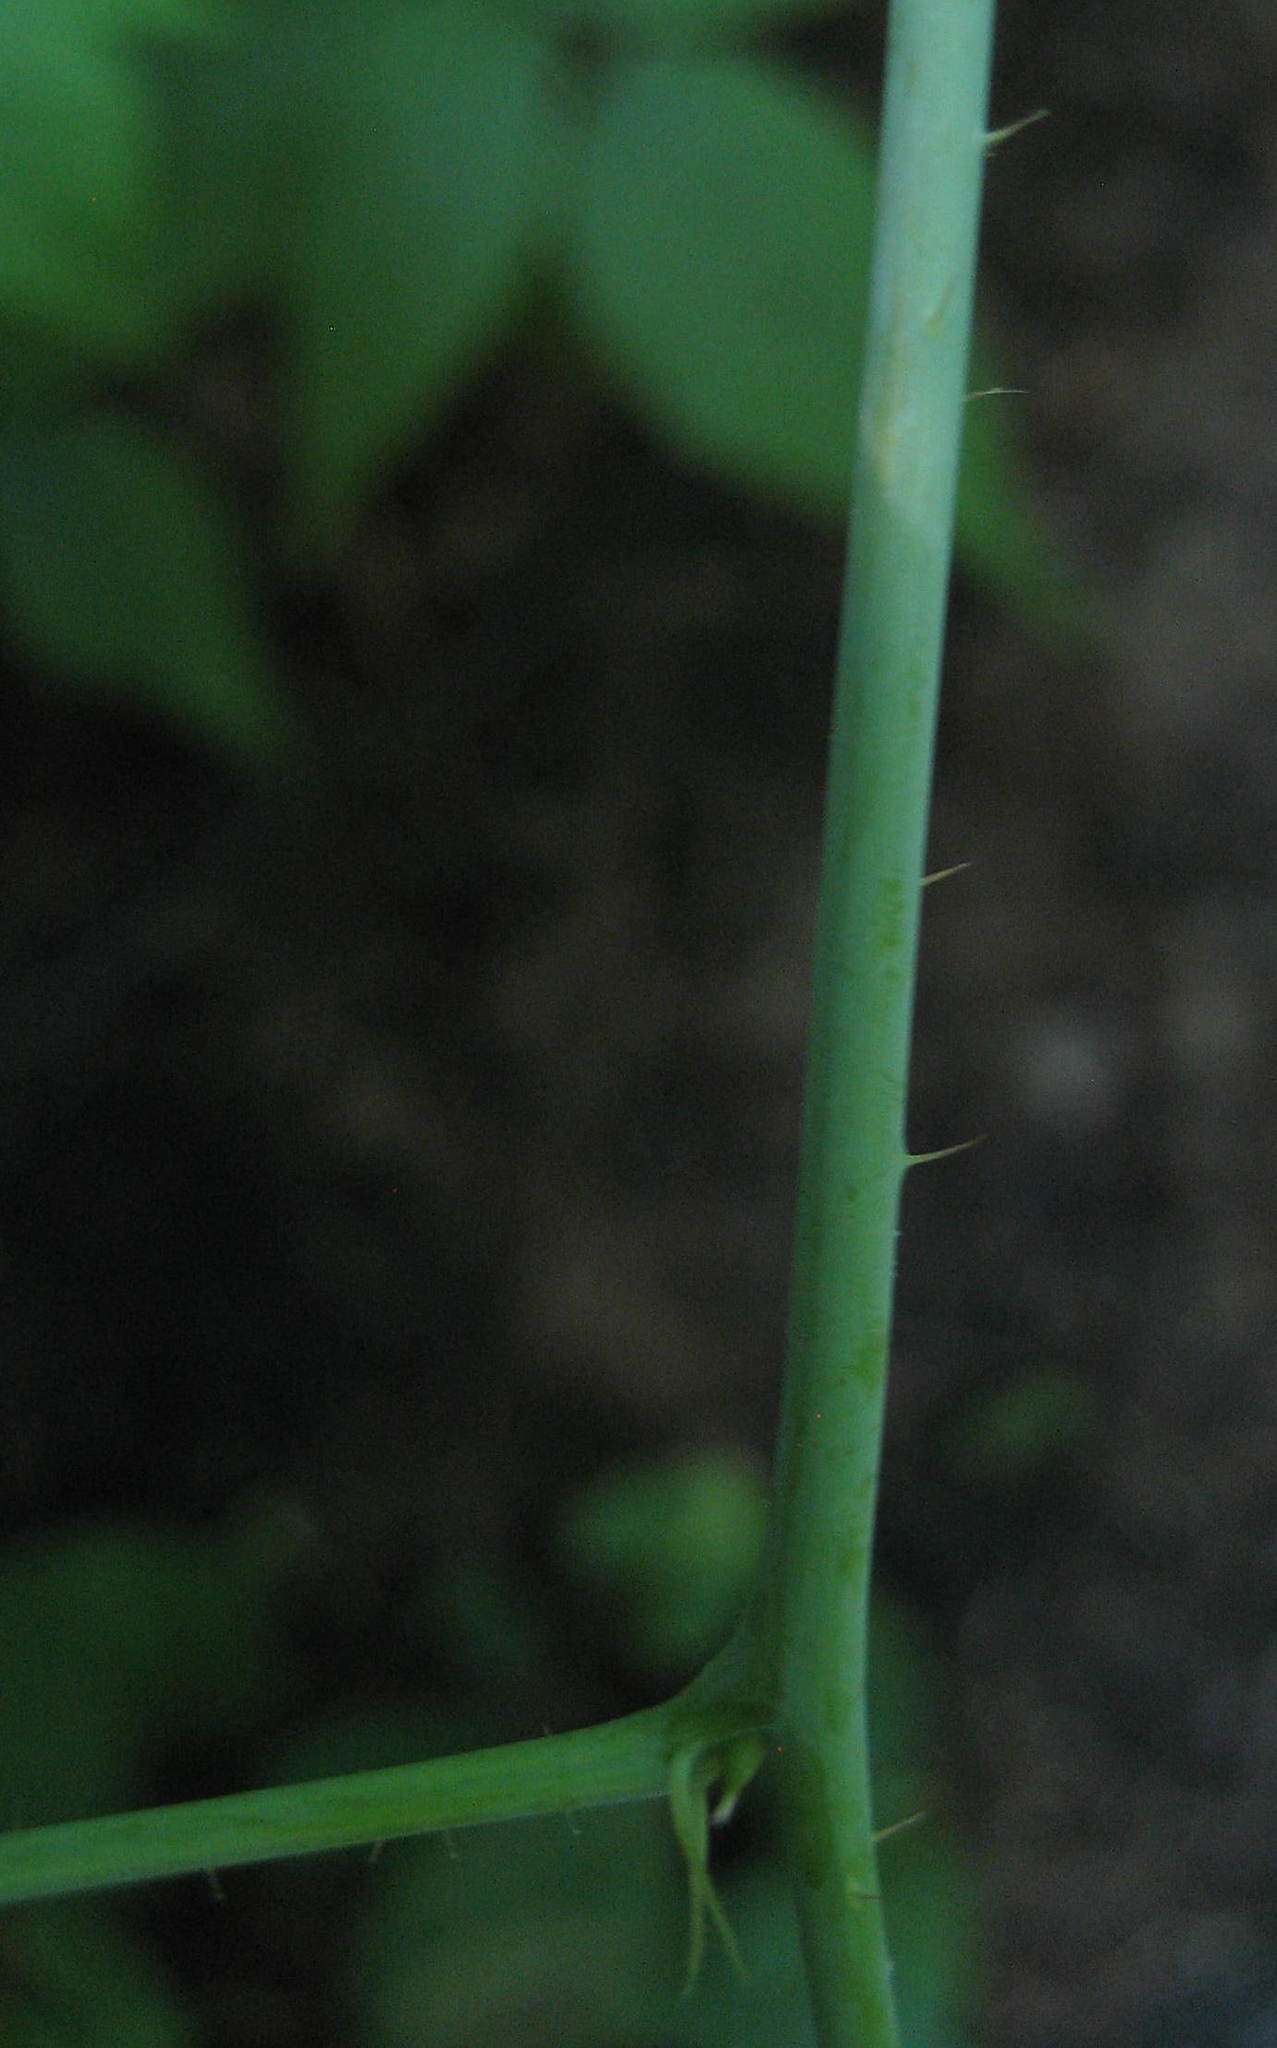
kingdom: Plantae
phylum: Tracheophyta
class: Magnoliopsida
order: Rosales
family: Rosaceae
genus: Rubus
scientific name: Rubus idaeus
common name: Raspberry
